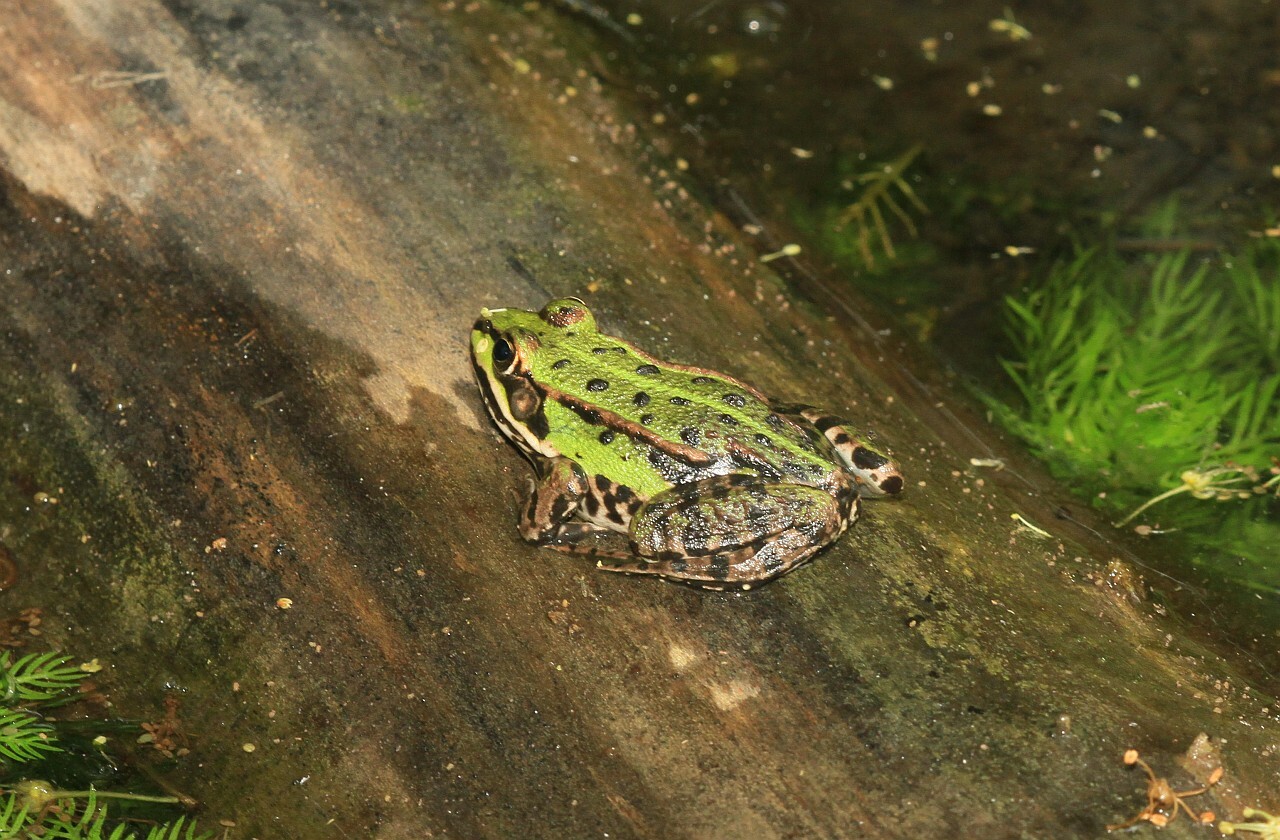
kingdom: Animalia
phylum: Chordata
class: Amphibia
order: Anura
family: Ranidae
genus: Pelophylax
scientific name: Pelophylax
